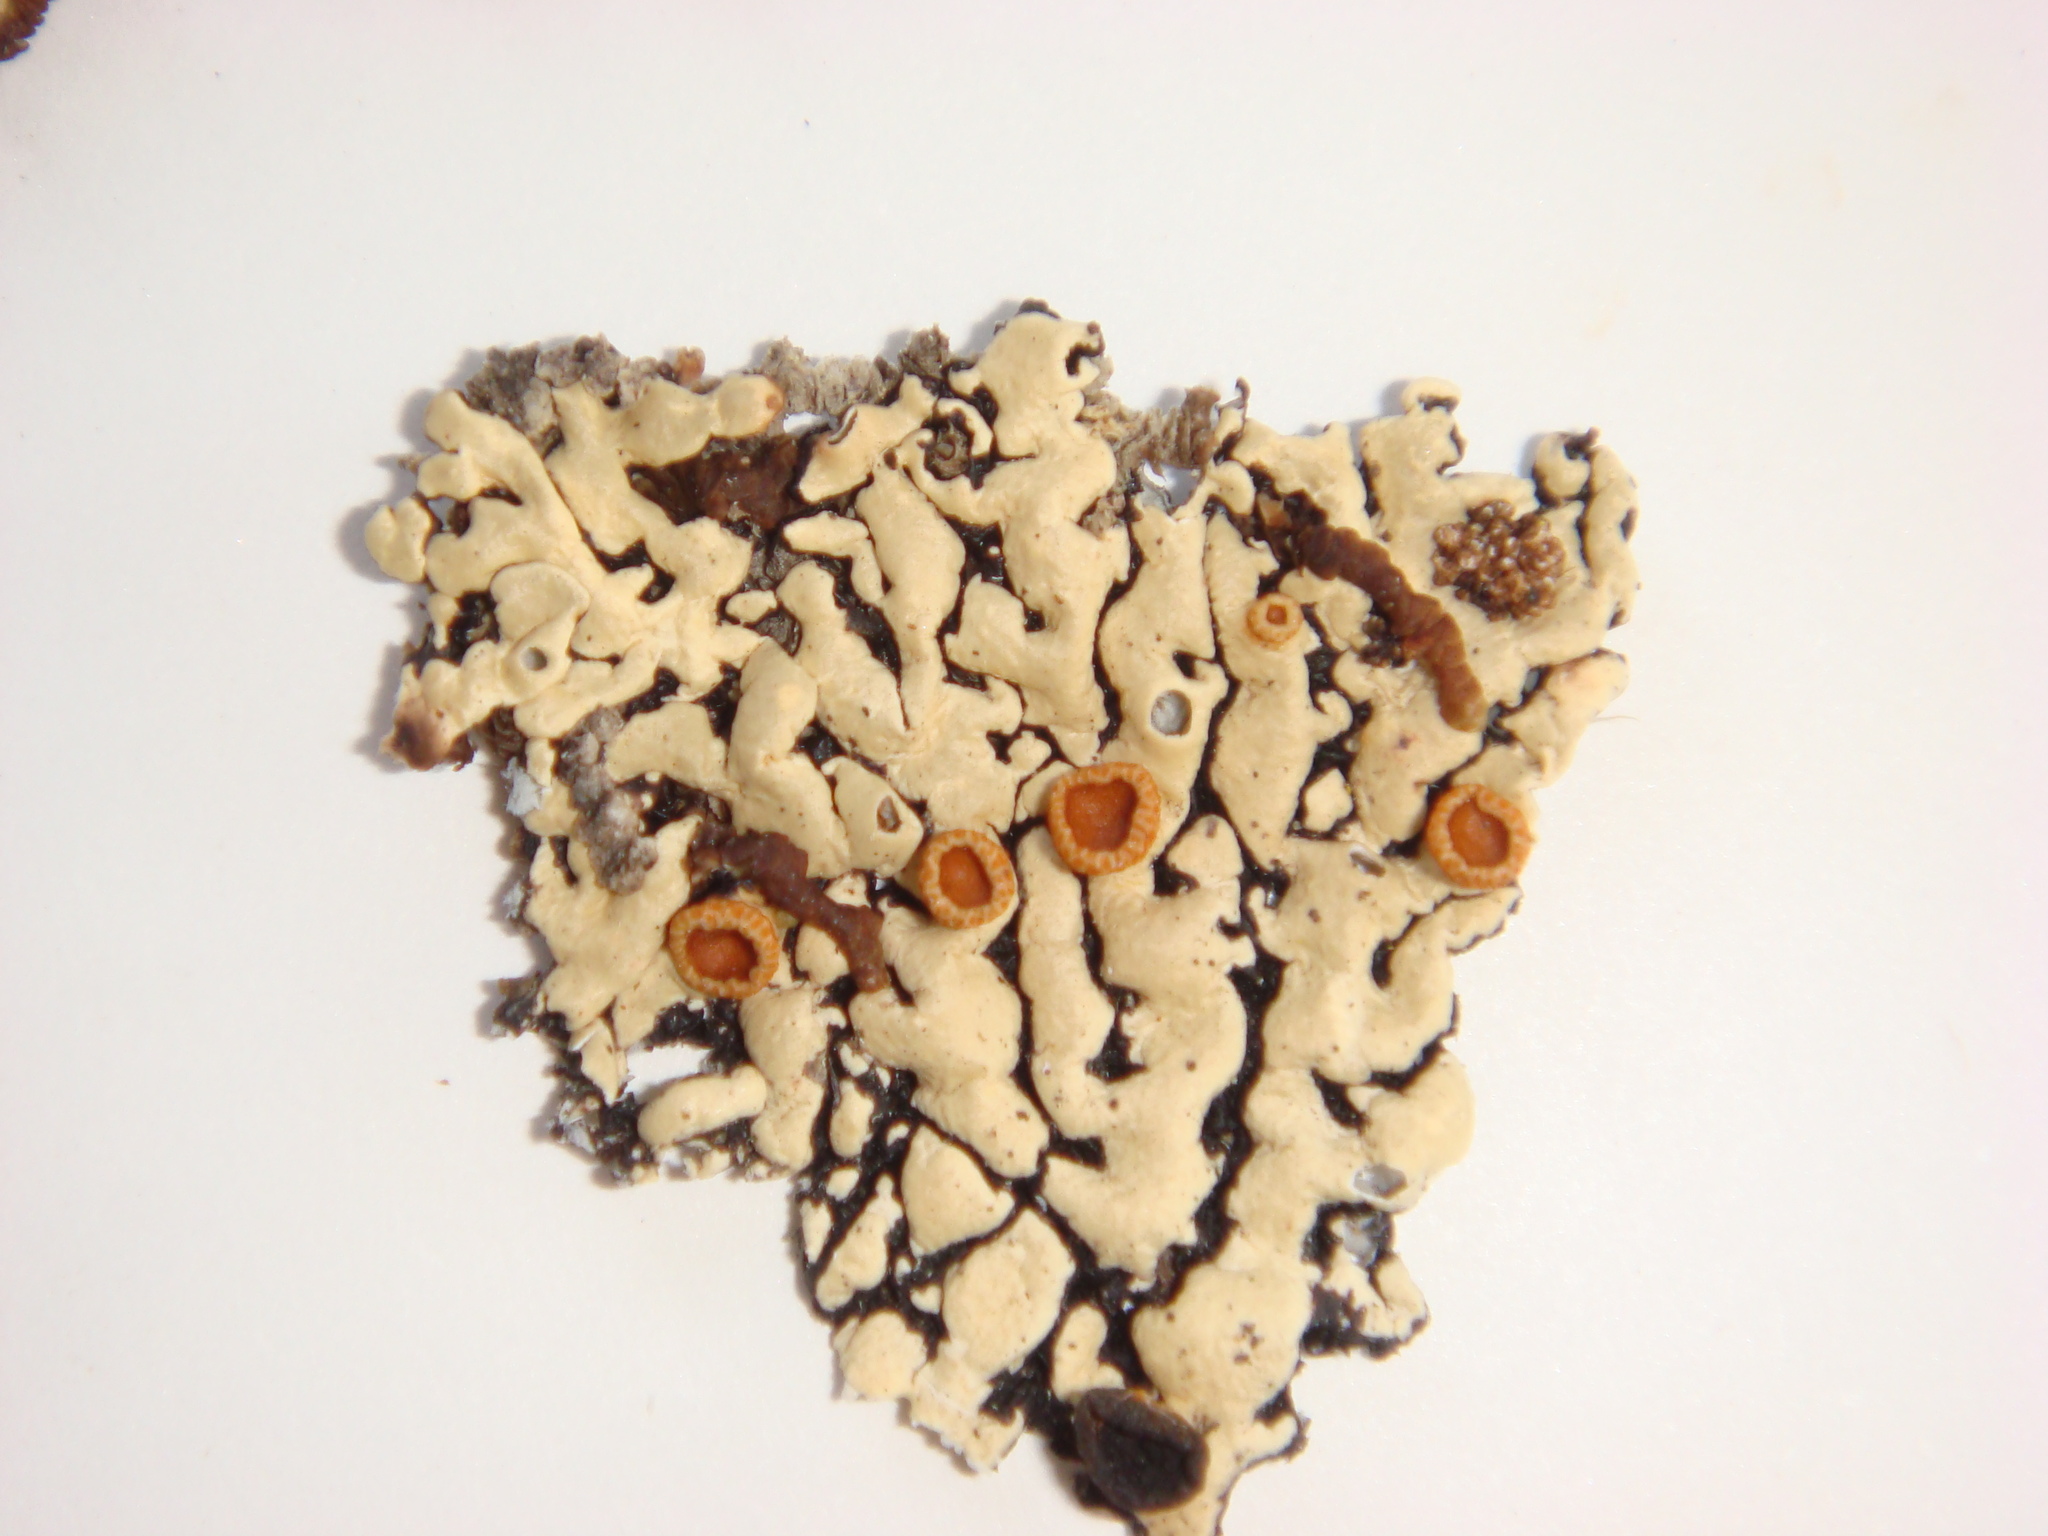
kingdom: Fungi
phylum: Ascomycota
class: Lecanoromycetes
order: Lecanorales
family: Parmeliaceae
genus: Menegazzia
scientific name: Menegazzia
